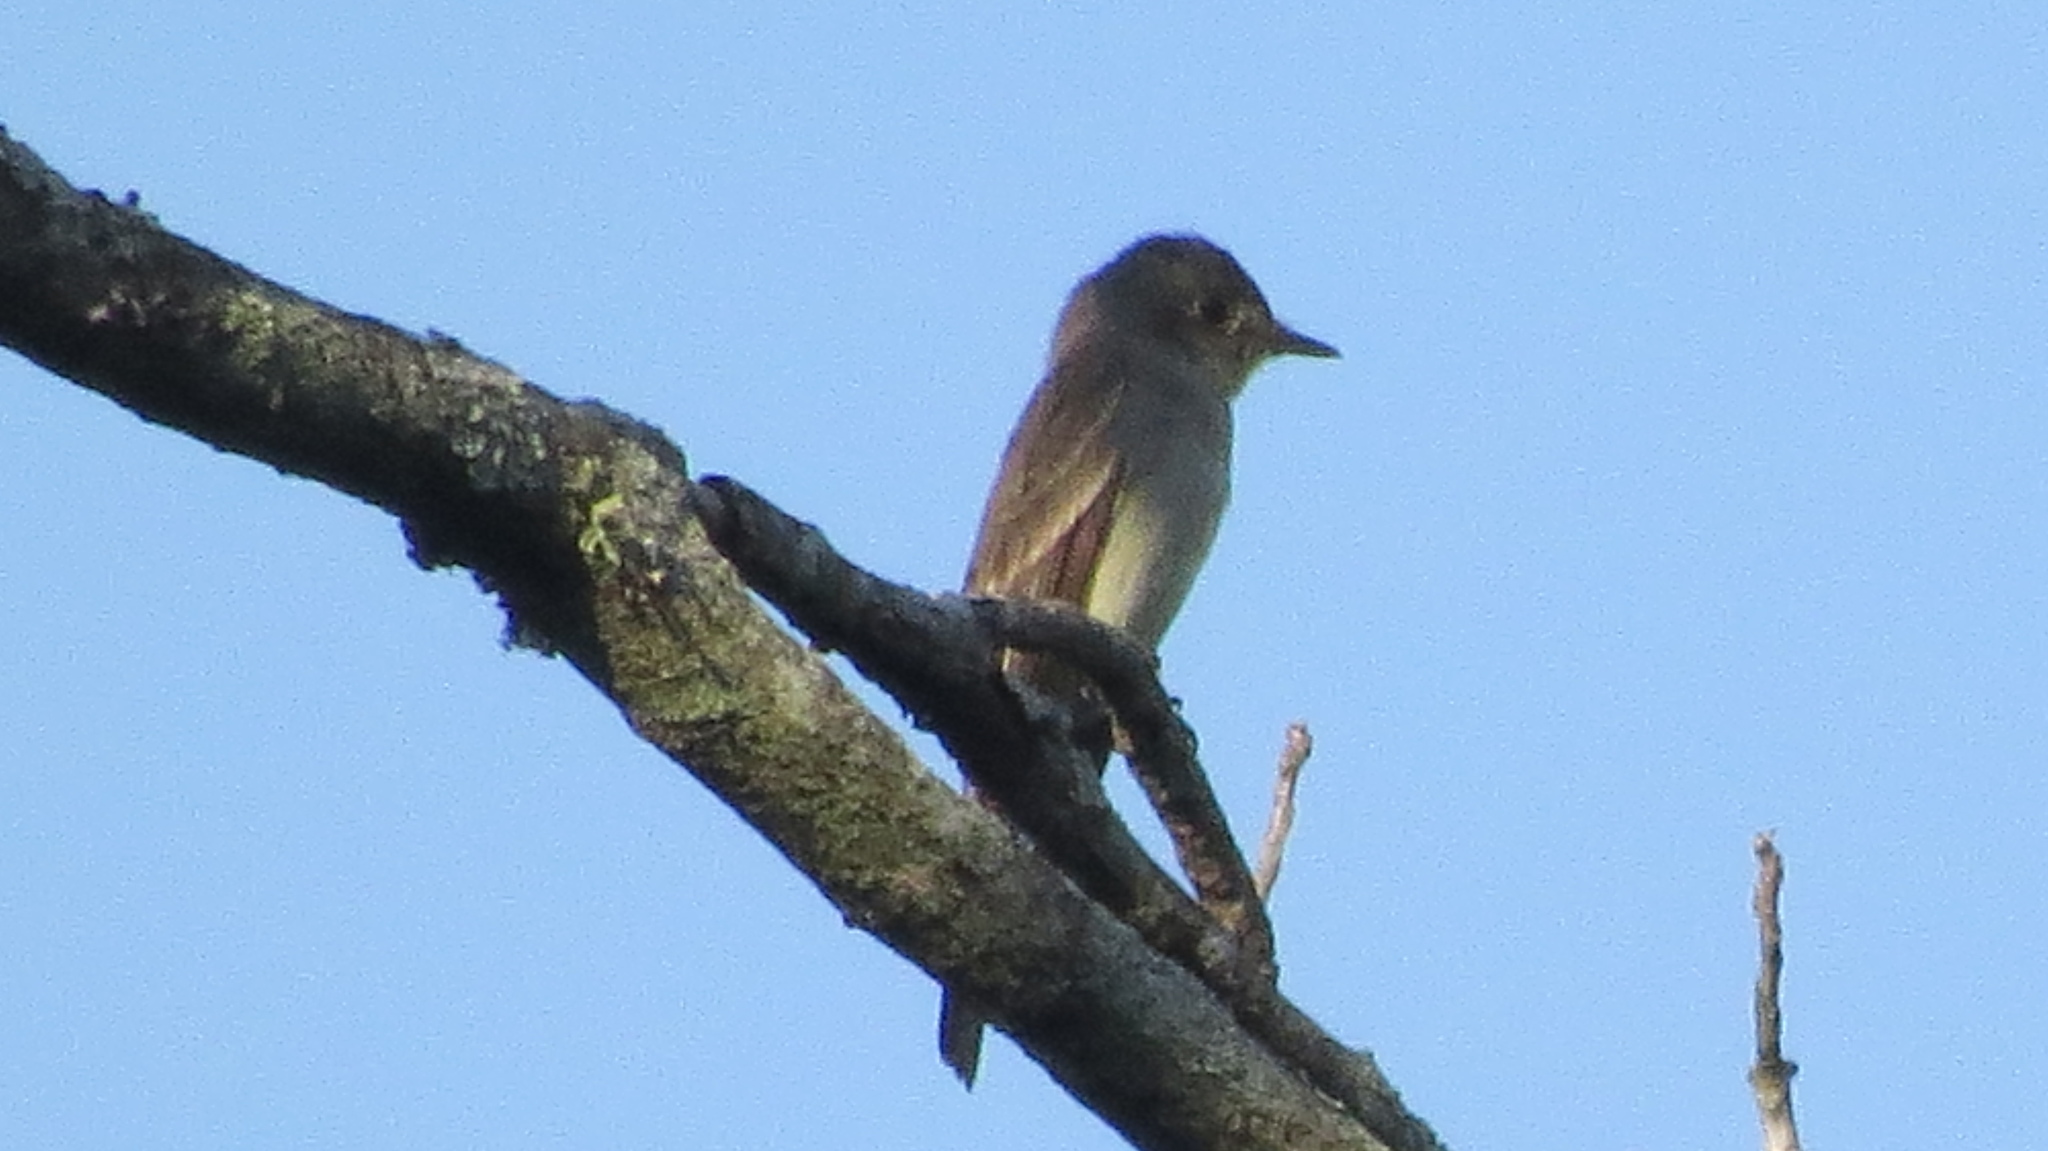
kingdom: Animalia
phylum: Chordata
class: Aves
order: Passeriformes
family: Tyrannidae
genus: Contopus
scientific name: Contopus virens
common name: Eastern wood-pewee
